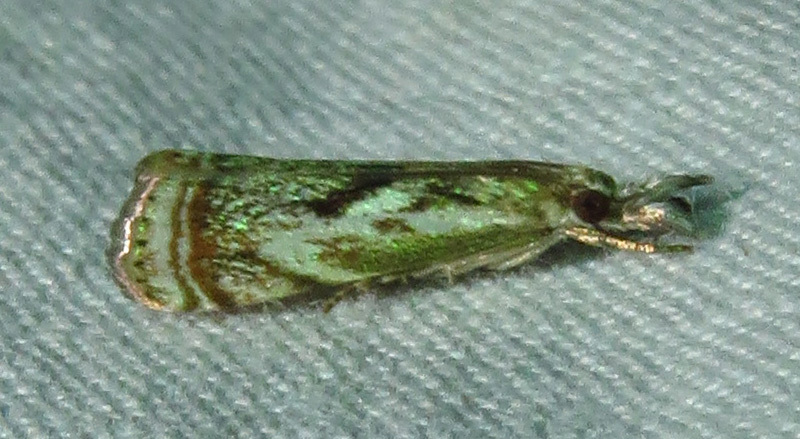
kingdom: Animalia
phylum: Arthropoda
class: Insecta
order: Lepidoptera
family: Crambidae
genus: Microcrambus
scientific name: Microcrambus elegans
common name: Elegant grass-veneer
